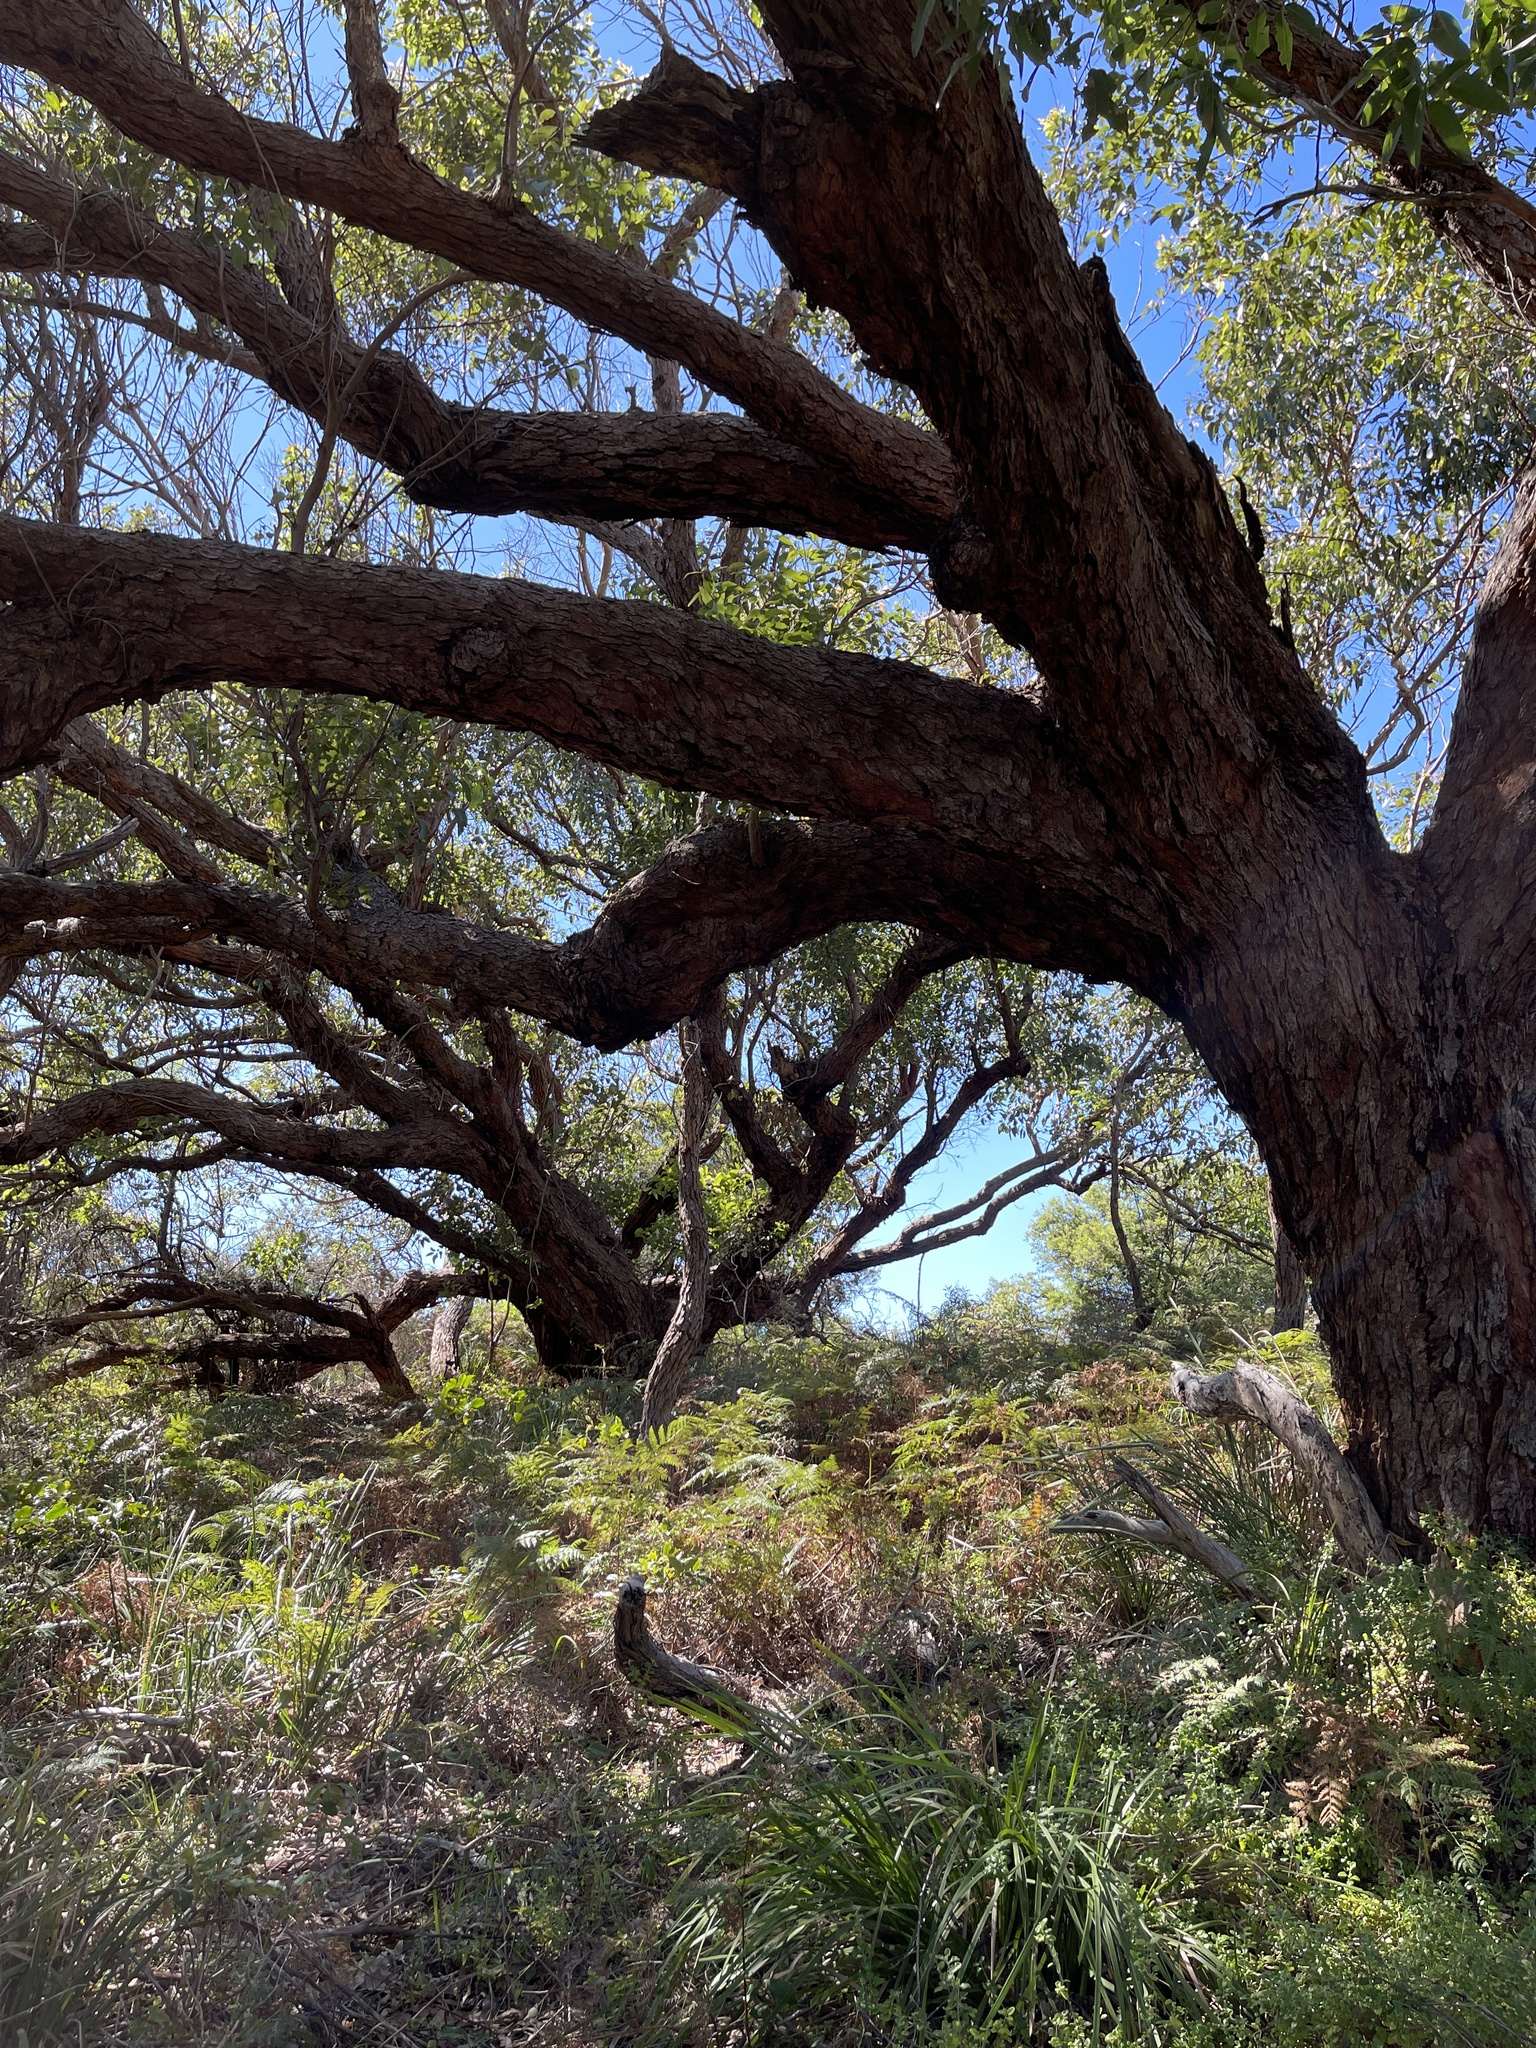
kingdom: Plantae
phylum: Tracheophyta
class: Magnoliopsida
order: Myrtales
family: Myrtaceae
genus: Eucalyptus
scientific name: Eucalyptus botryoides
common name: Bangalay
